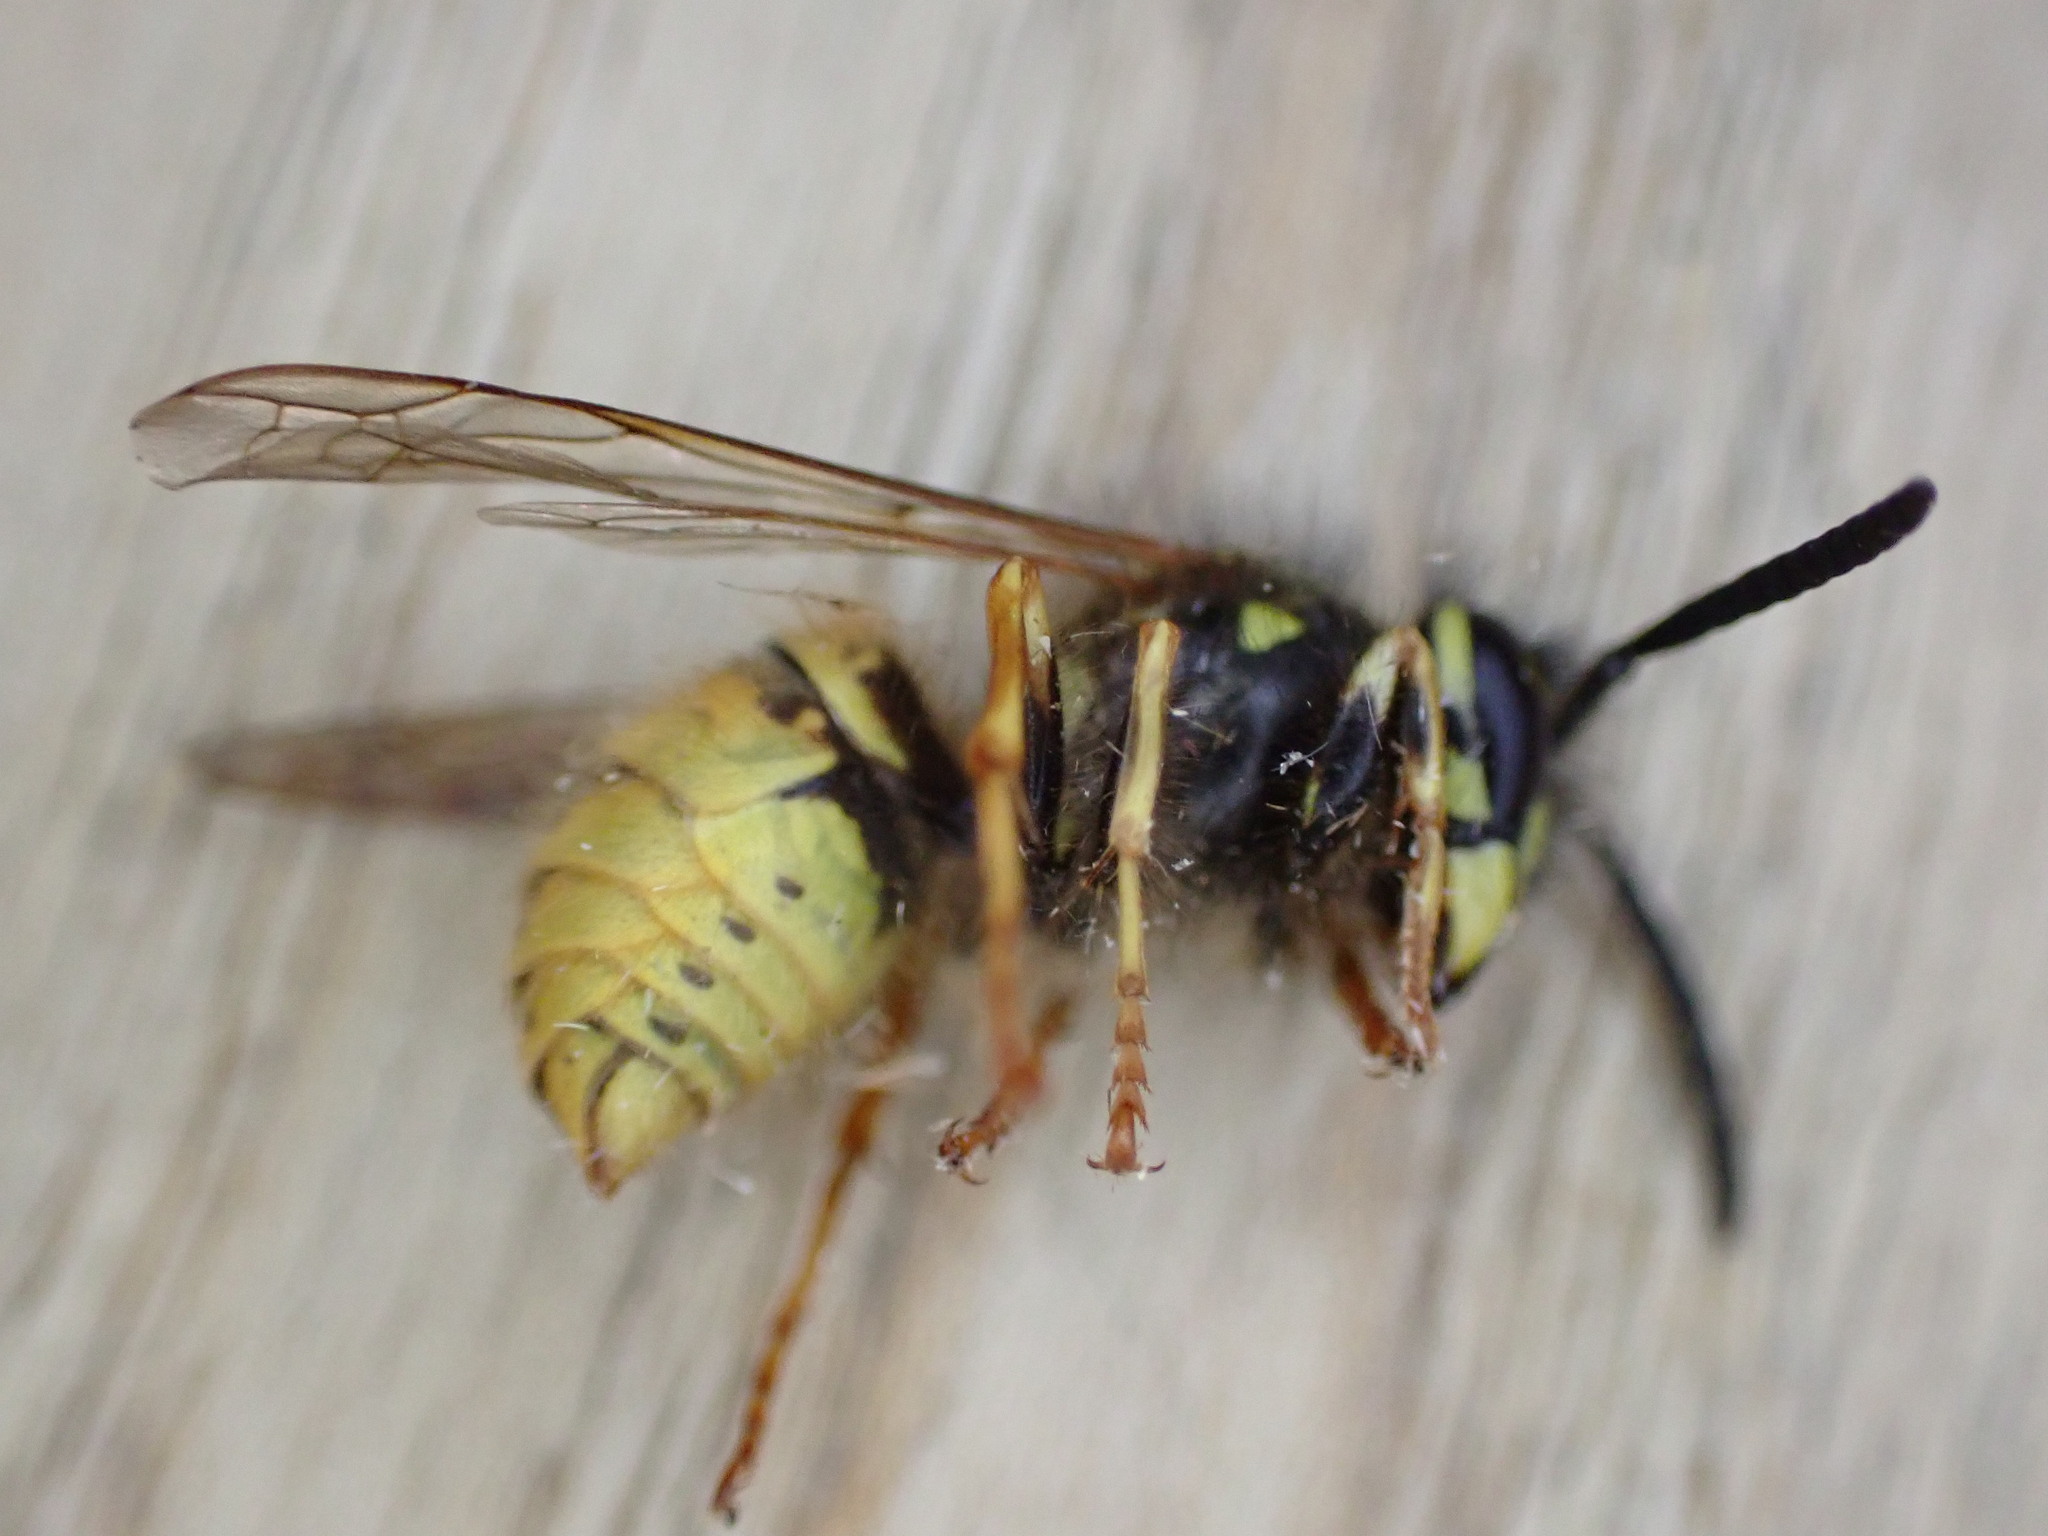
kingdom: Animalia
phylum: Arthropoda
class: Insecta
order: Hymenoptera
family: Vespidae
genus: Vespula
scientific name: Vespula vulgaris
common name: Common wasp
